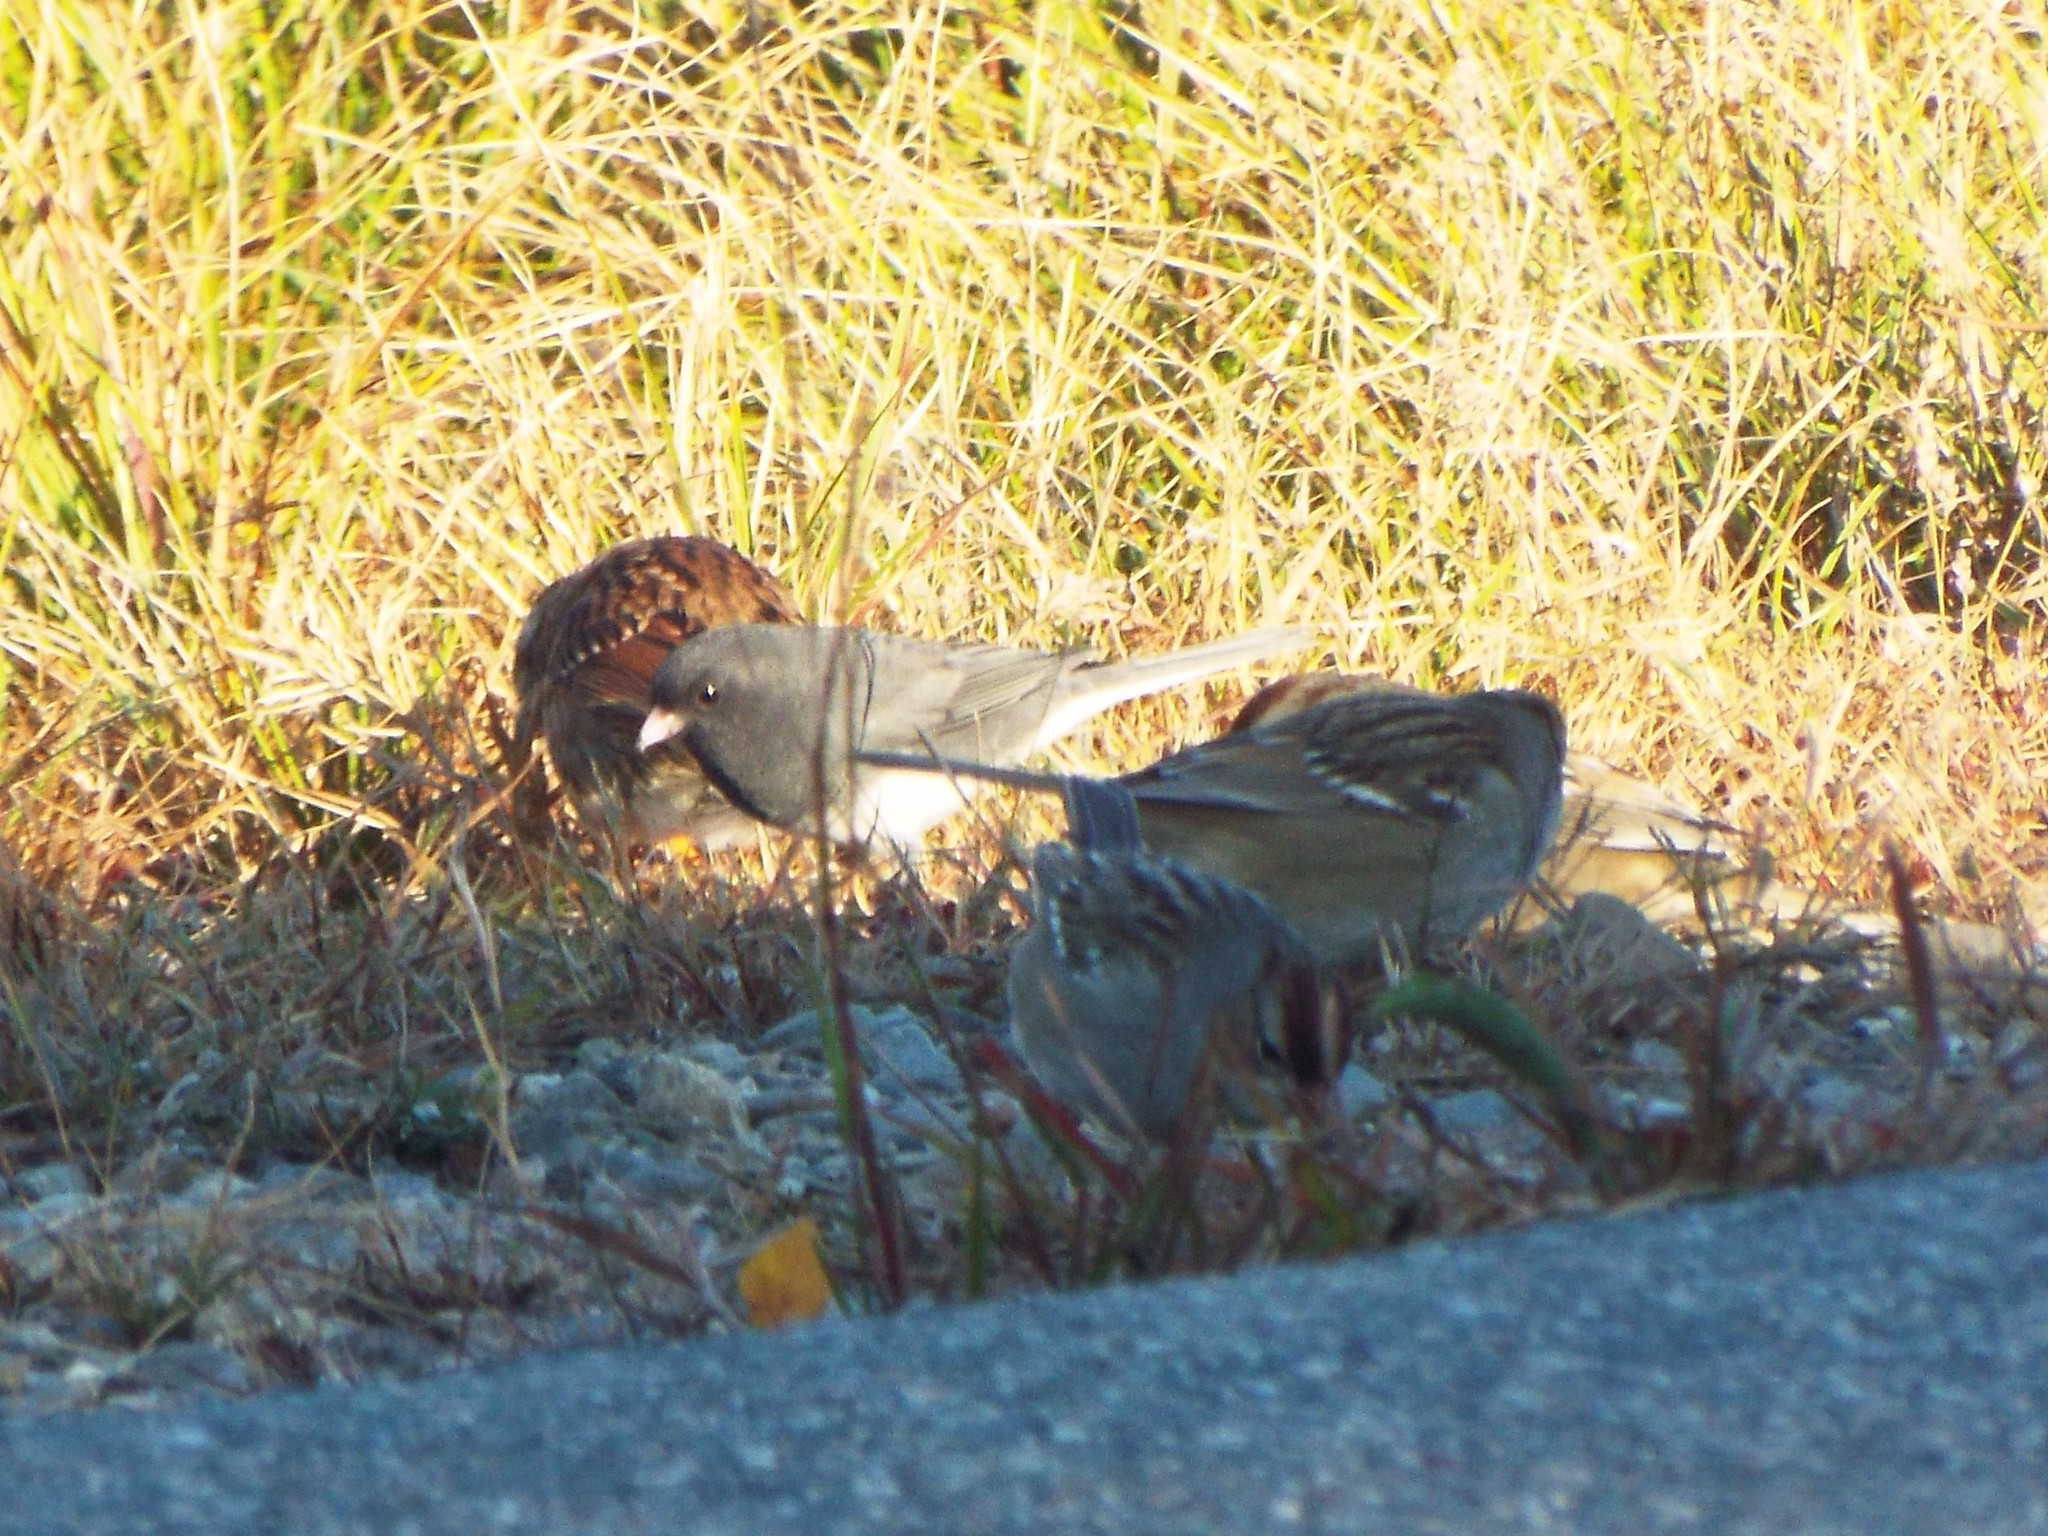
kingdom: Animalia
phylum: Chordata
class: Aves
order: Passeriformes
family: Passerellidae
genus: Junco
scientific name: Junco hyemalis
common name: Dark-eyed junco
